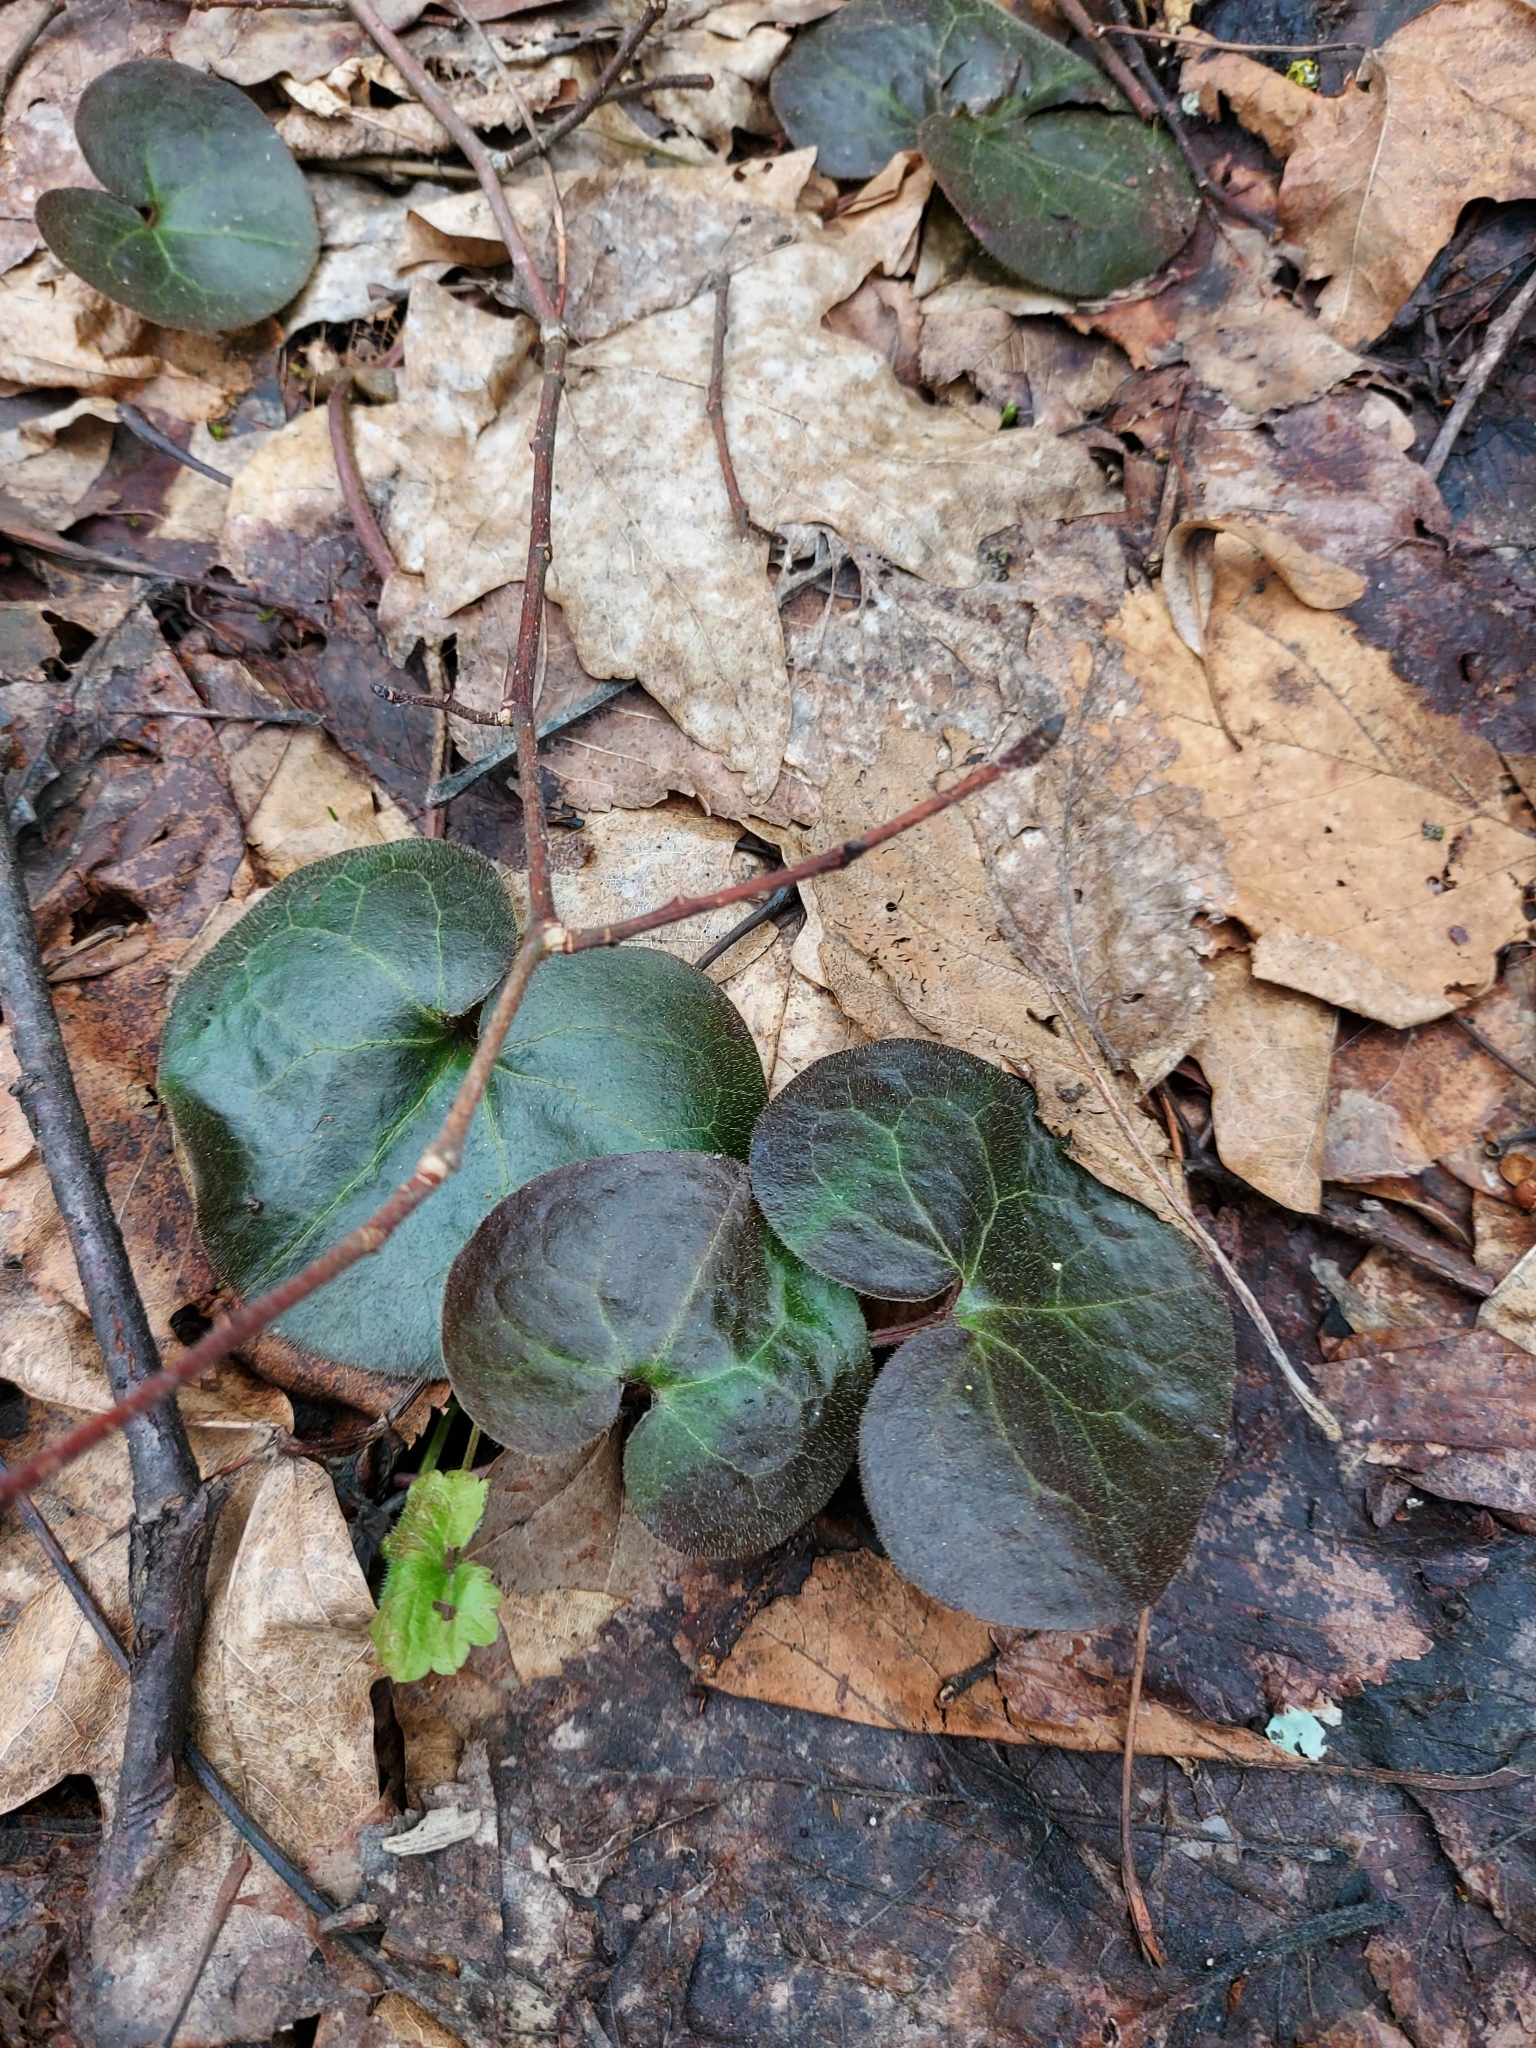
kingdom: Plantae
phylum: Tracheophyta
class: Magnoliopsida
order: Piperales
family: Aristolochiaceae
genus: Asarum
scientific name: Asarum europaeum
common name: Asarabacca
